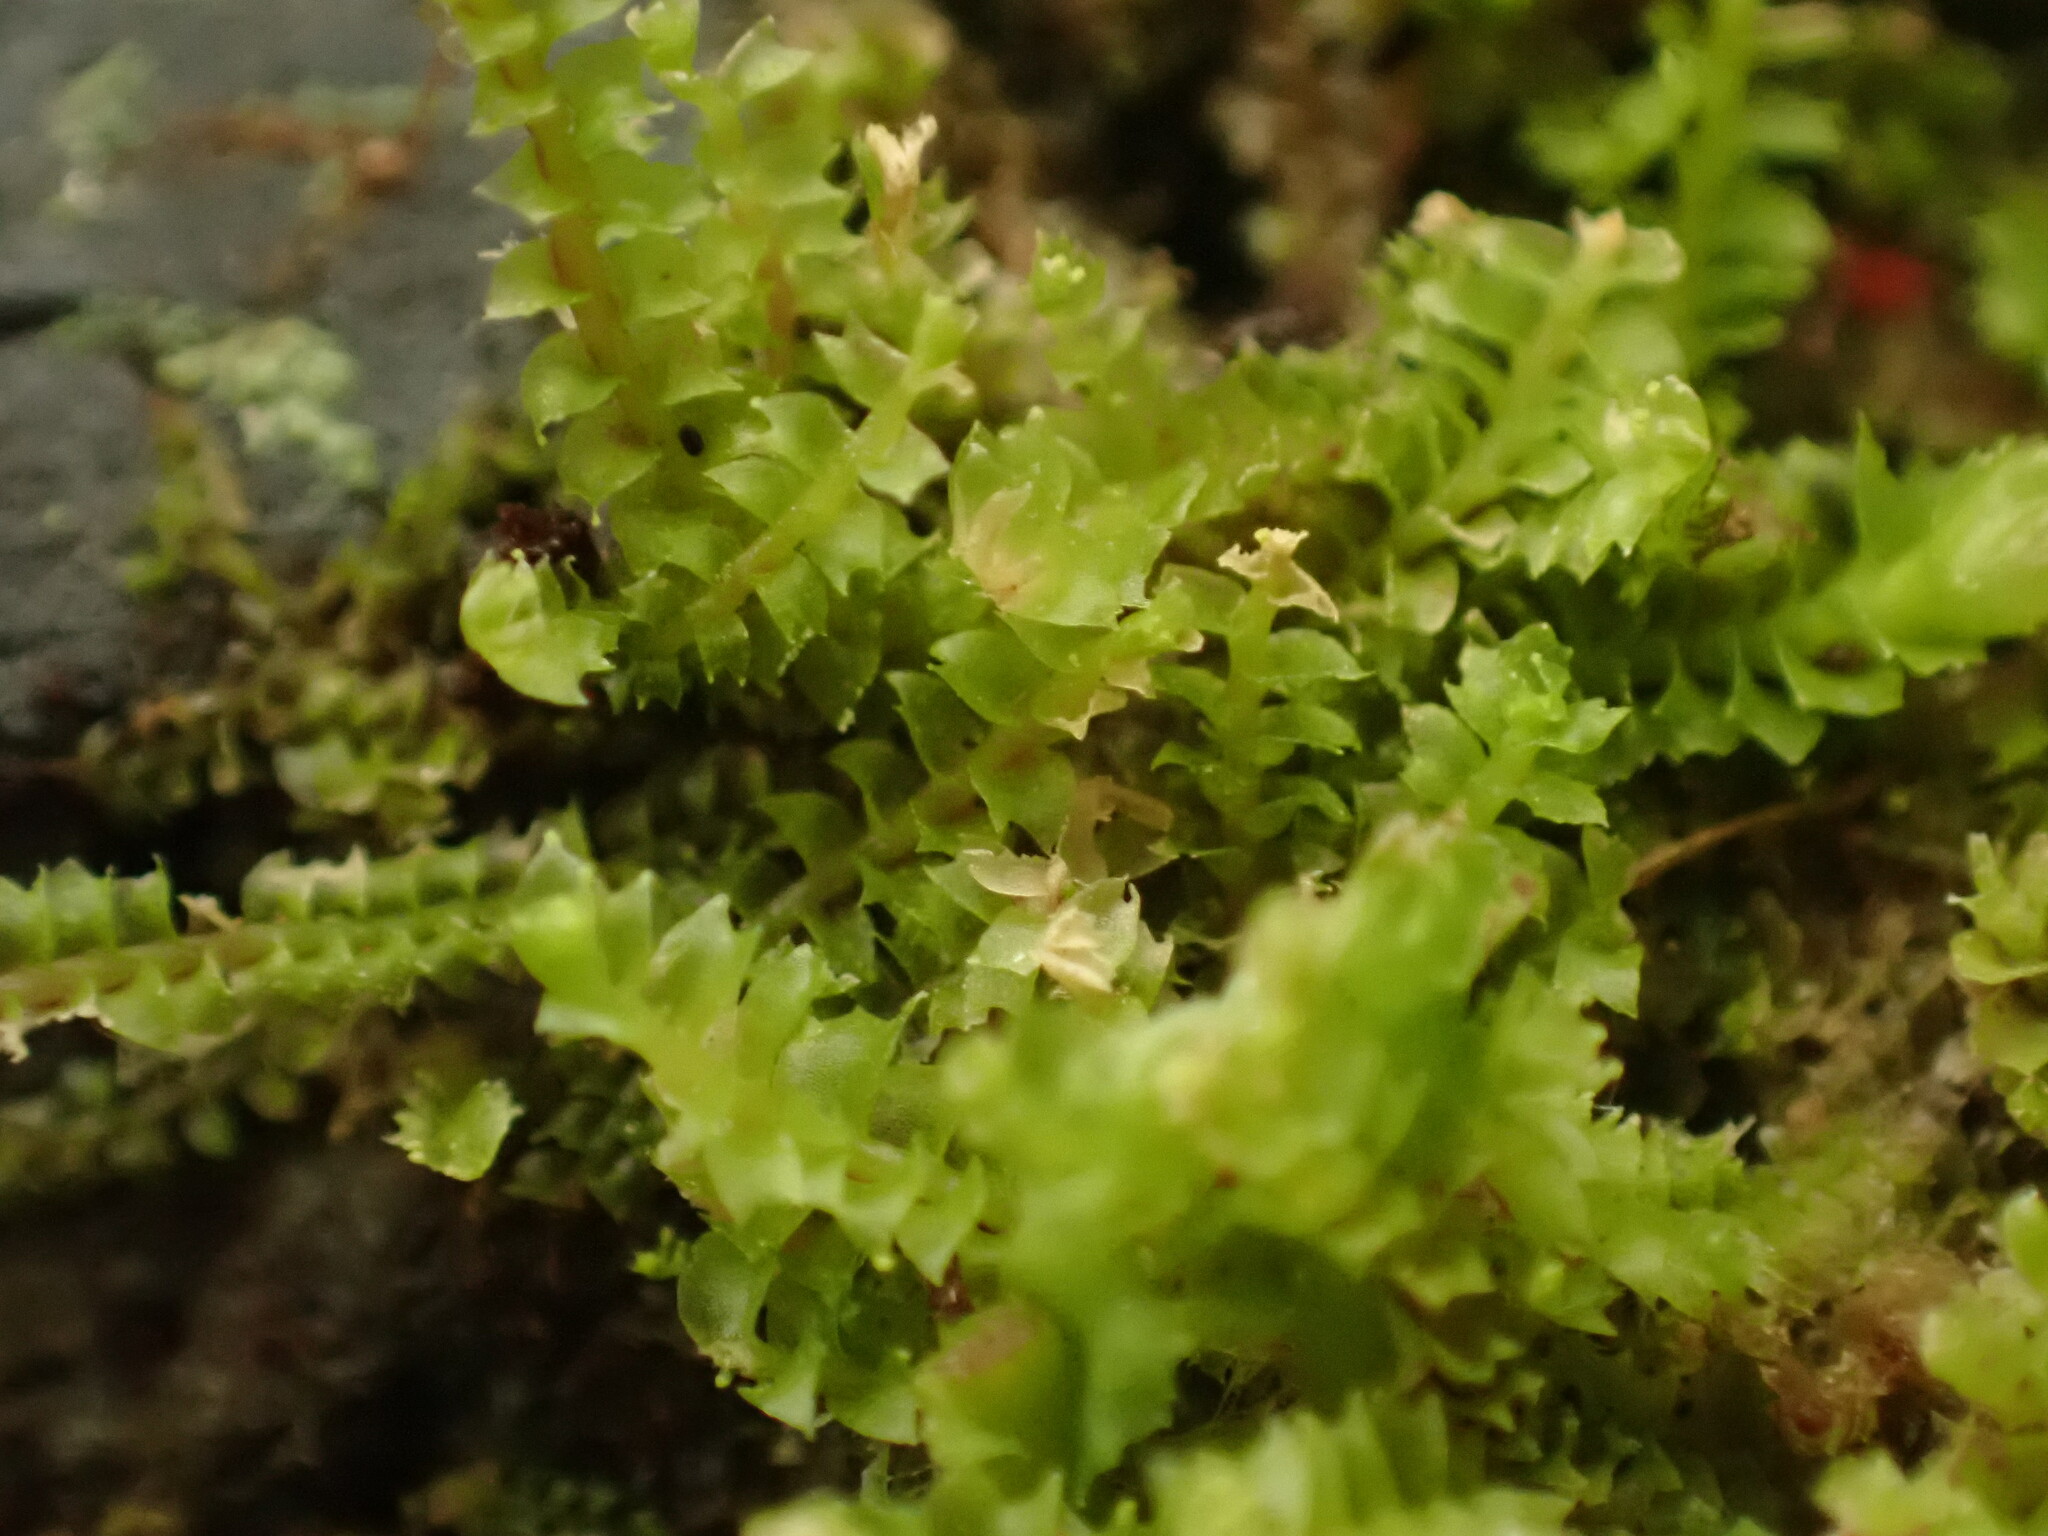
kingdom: Plantae
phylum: Marchantiophyta
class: Jungermanniopsida
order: Jungermanniales
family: Lophoziaceae
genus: Lophozia
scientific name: Lophozia ventricosa
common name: Tumid notchwort
